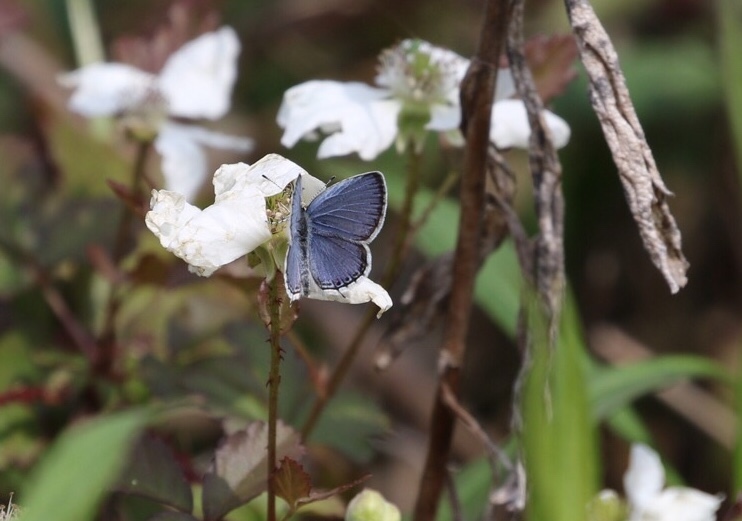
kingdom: Animalia
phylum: Arthropoda
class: Insecta
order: Lepidoptera
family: Lycaenidae
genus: Elkalyce
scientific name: Elkalyce comyntas
